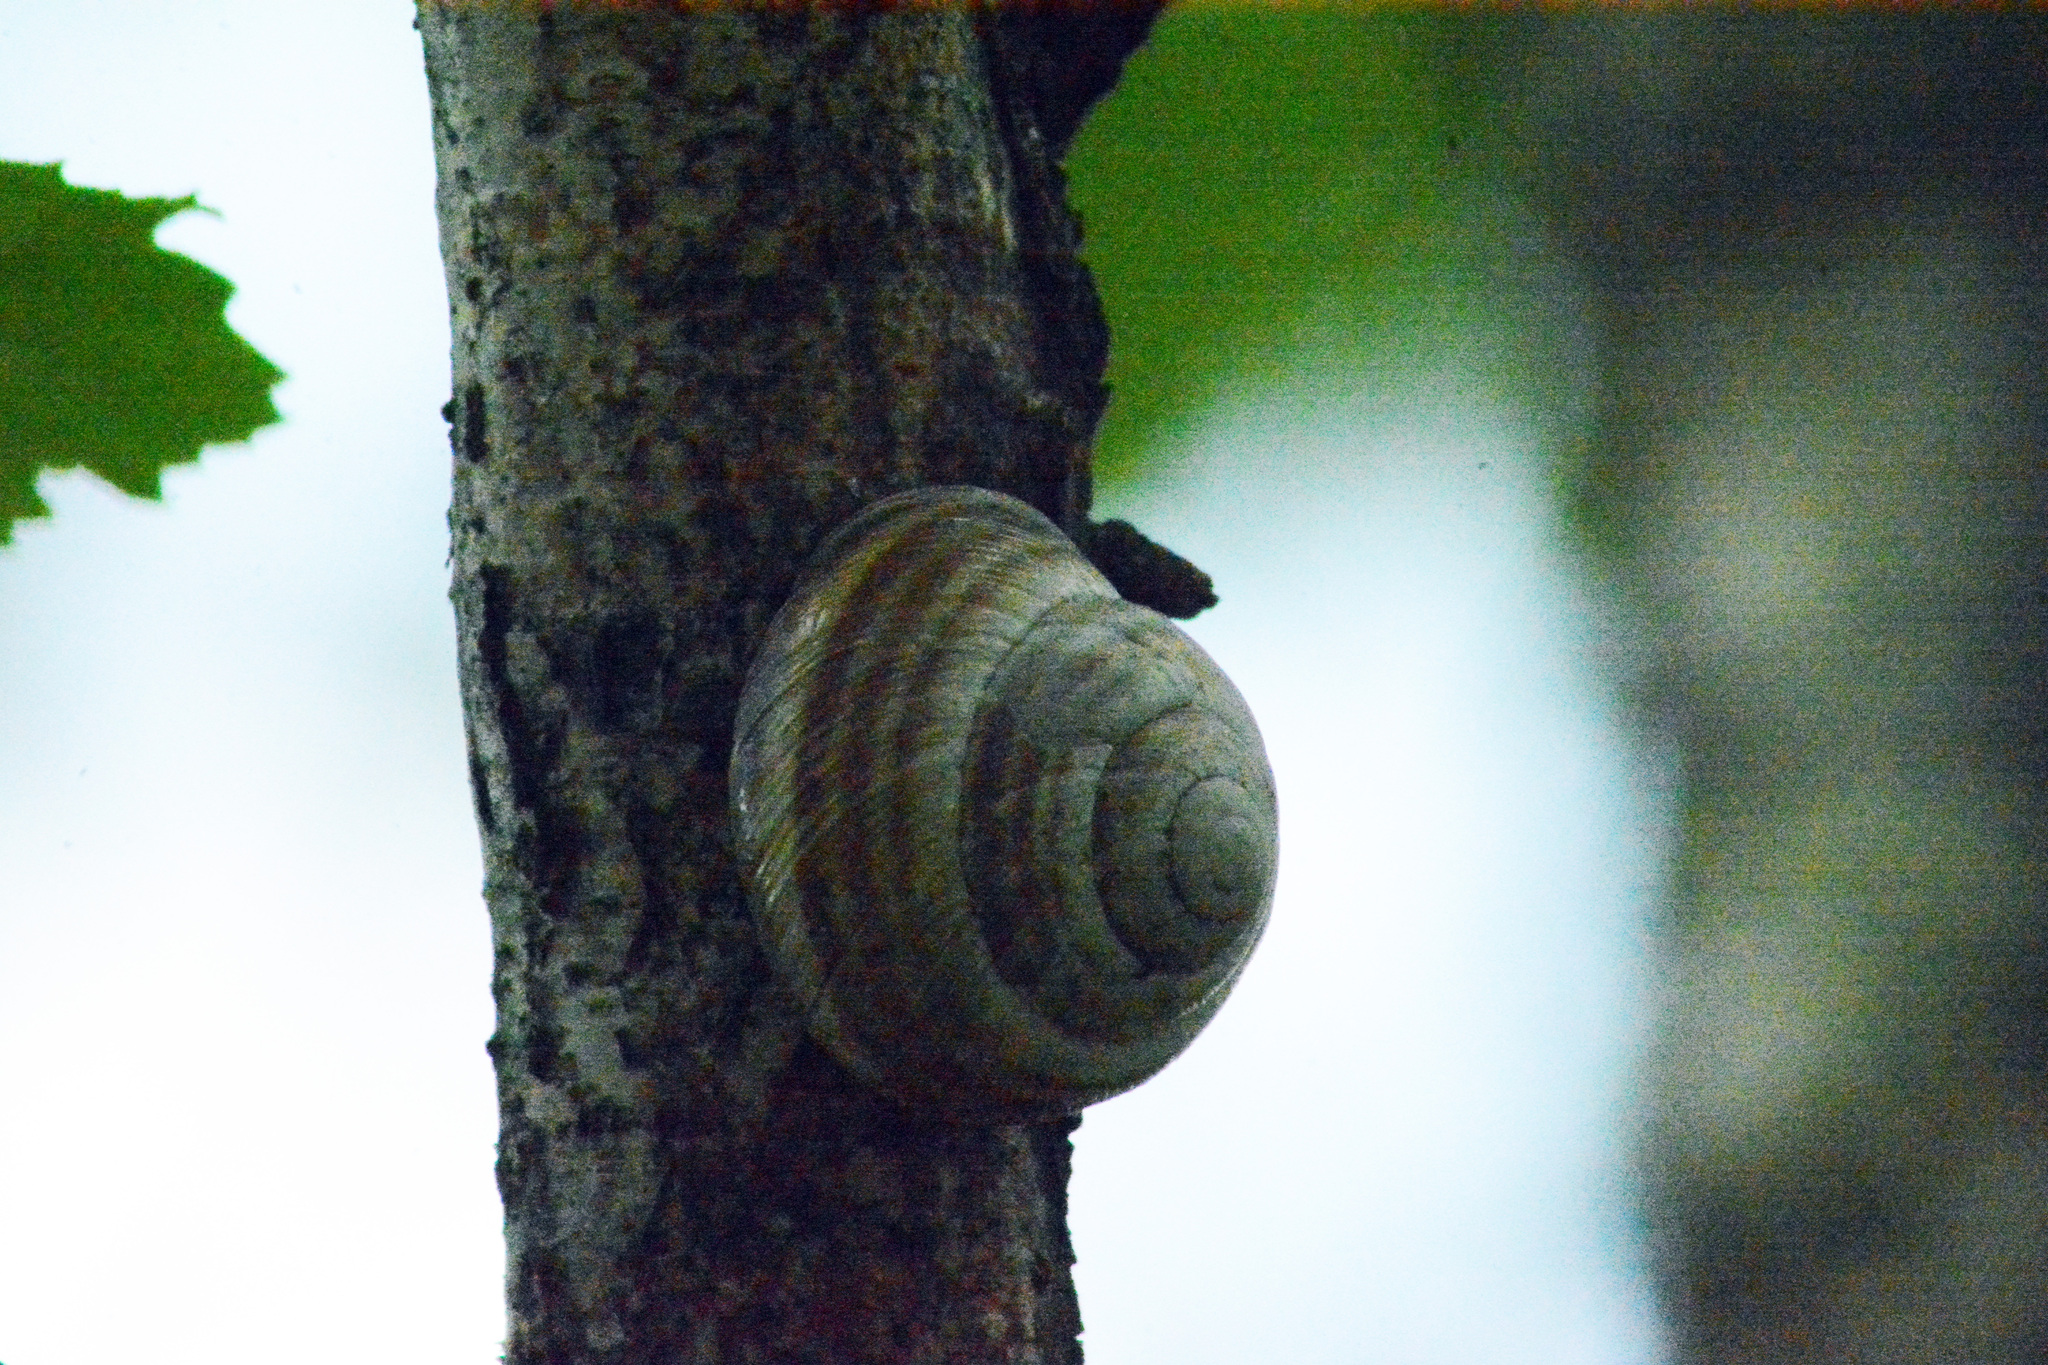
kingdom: Animalia
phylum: Mollusca
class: Gastropoda
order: Stylommatophora
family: Helicidae
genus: Caucasotachea
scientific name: Caucasotachea vindobonensis
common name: European helicid land snail
